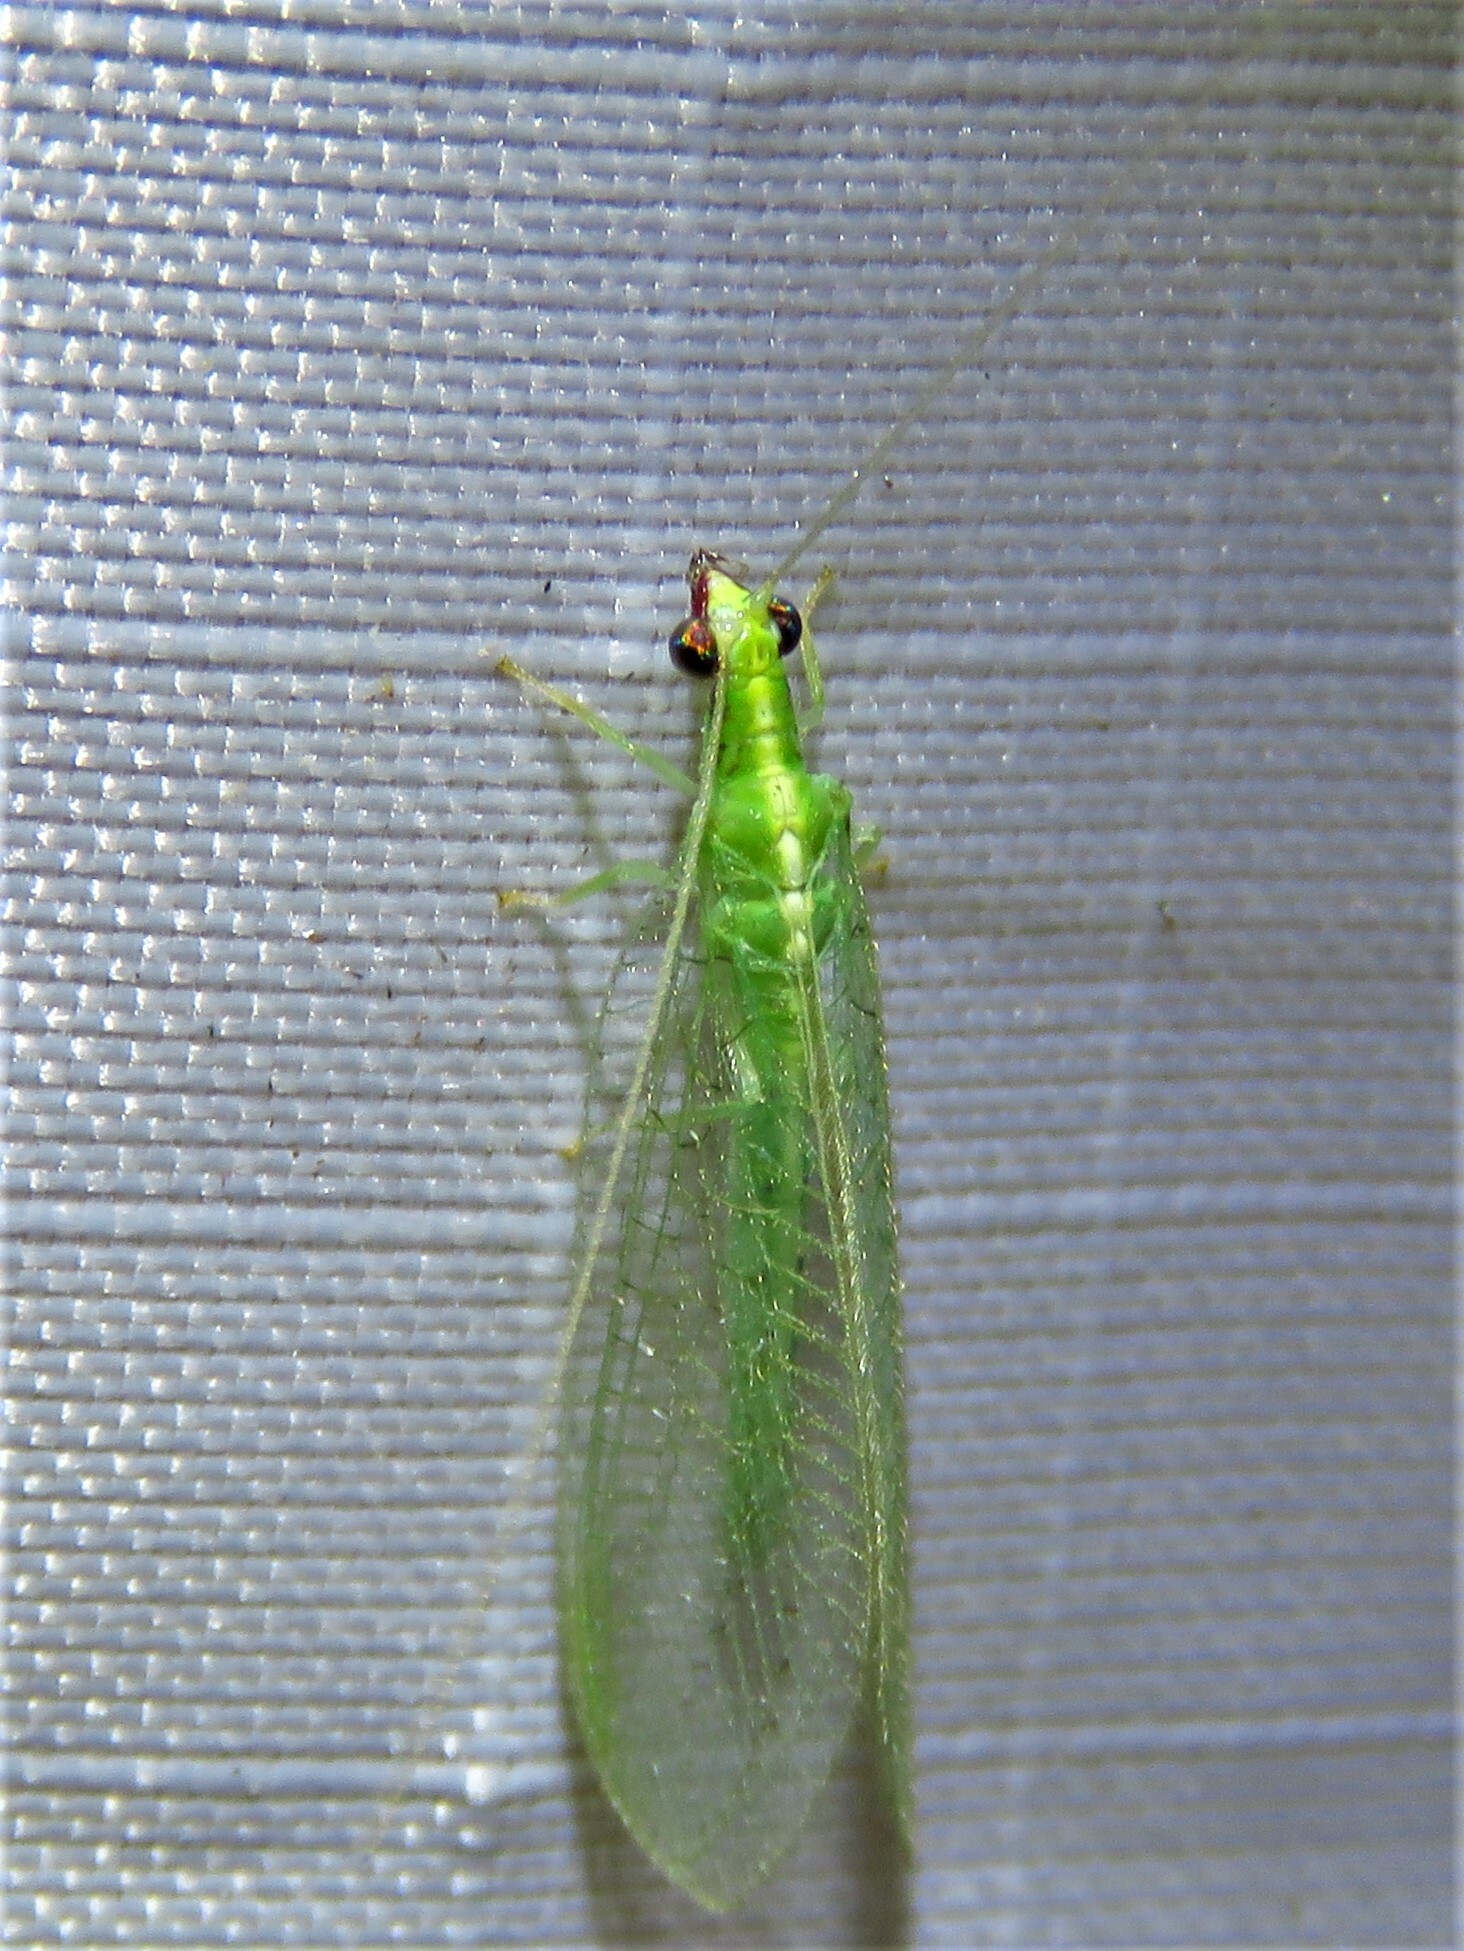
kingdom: Animalia
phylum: Arthropoda
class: Insecta
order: Neuroptera
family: Chrysopidae
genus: Chrysoperla
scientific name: Chrysoperla rufilabris
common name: Red-lipped green lacewing
